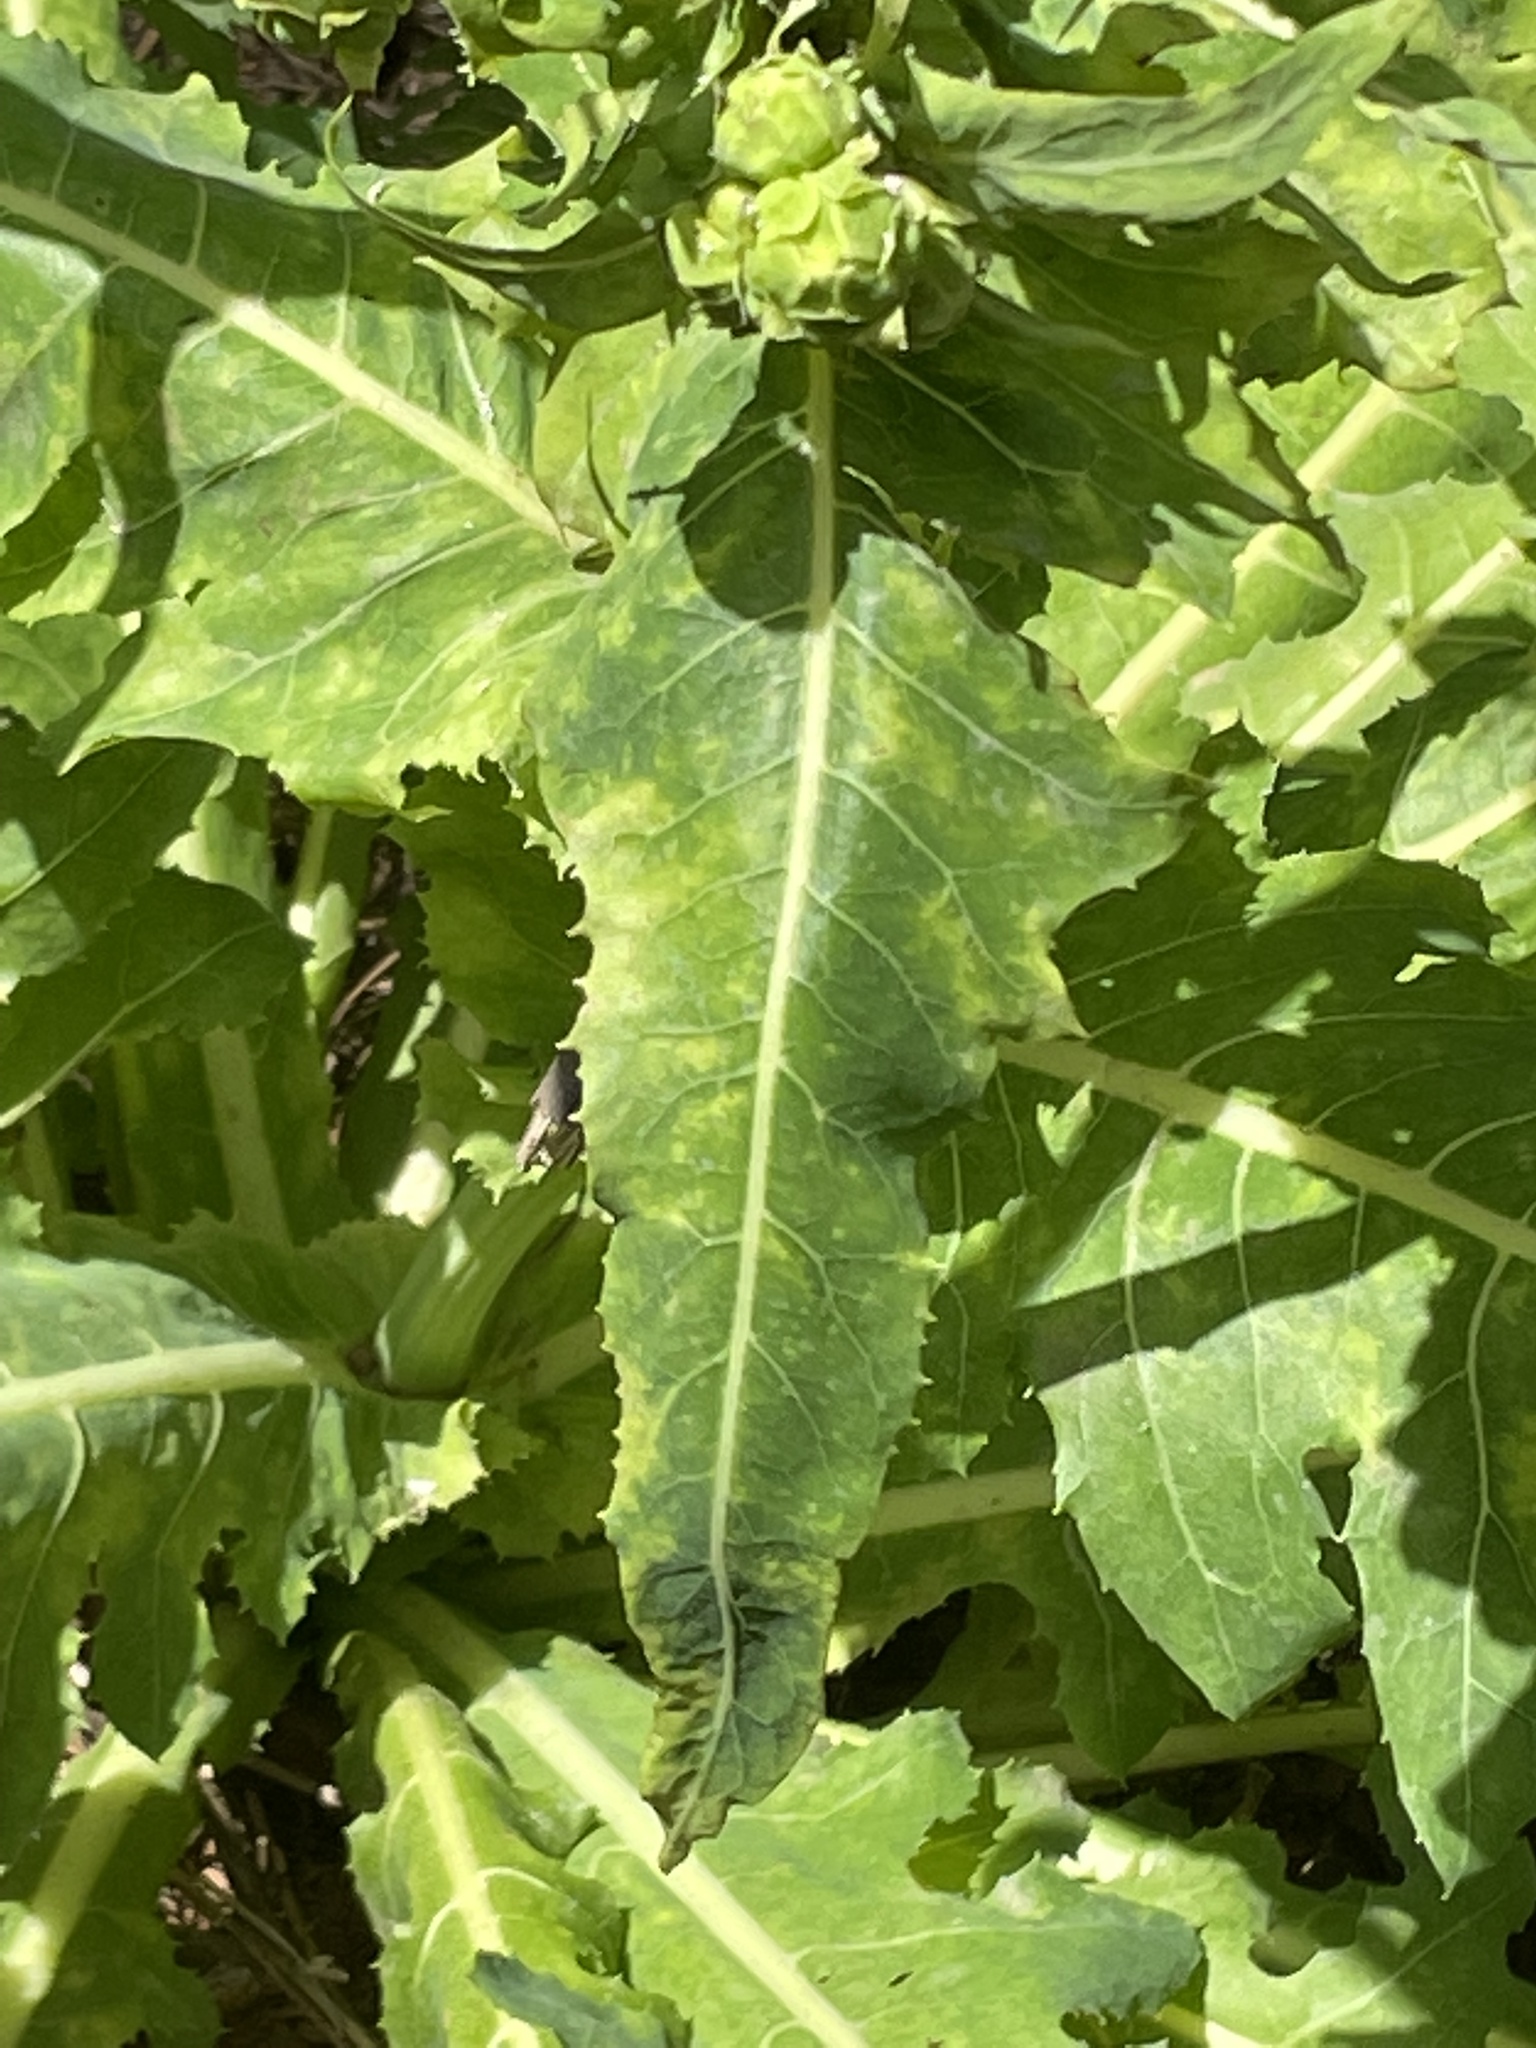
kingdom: Plantae
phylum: Tracheophyta
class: Magnoliopsida
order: Asterales
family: Asteraceae
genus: Sonchus
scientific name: Sonchus daltonii
